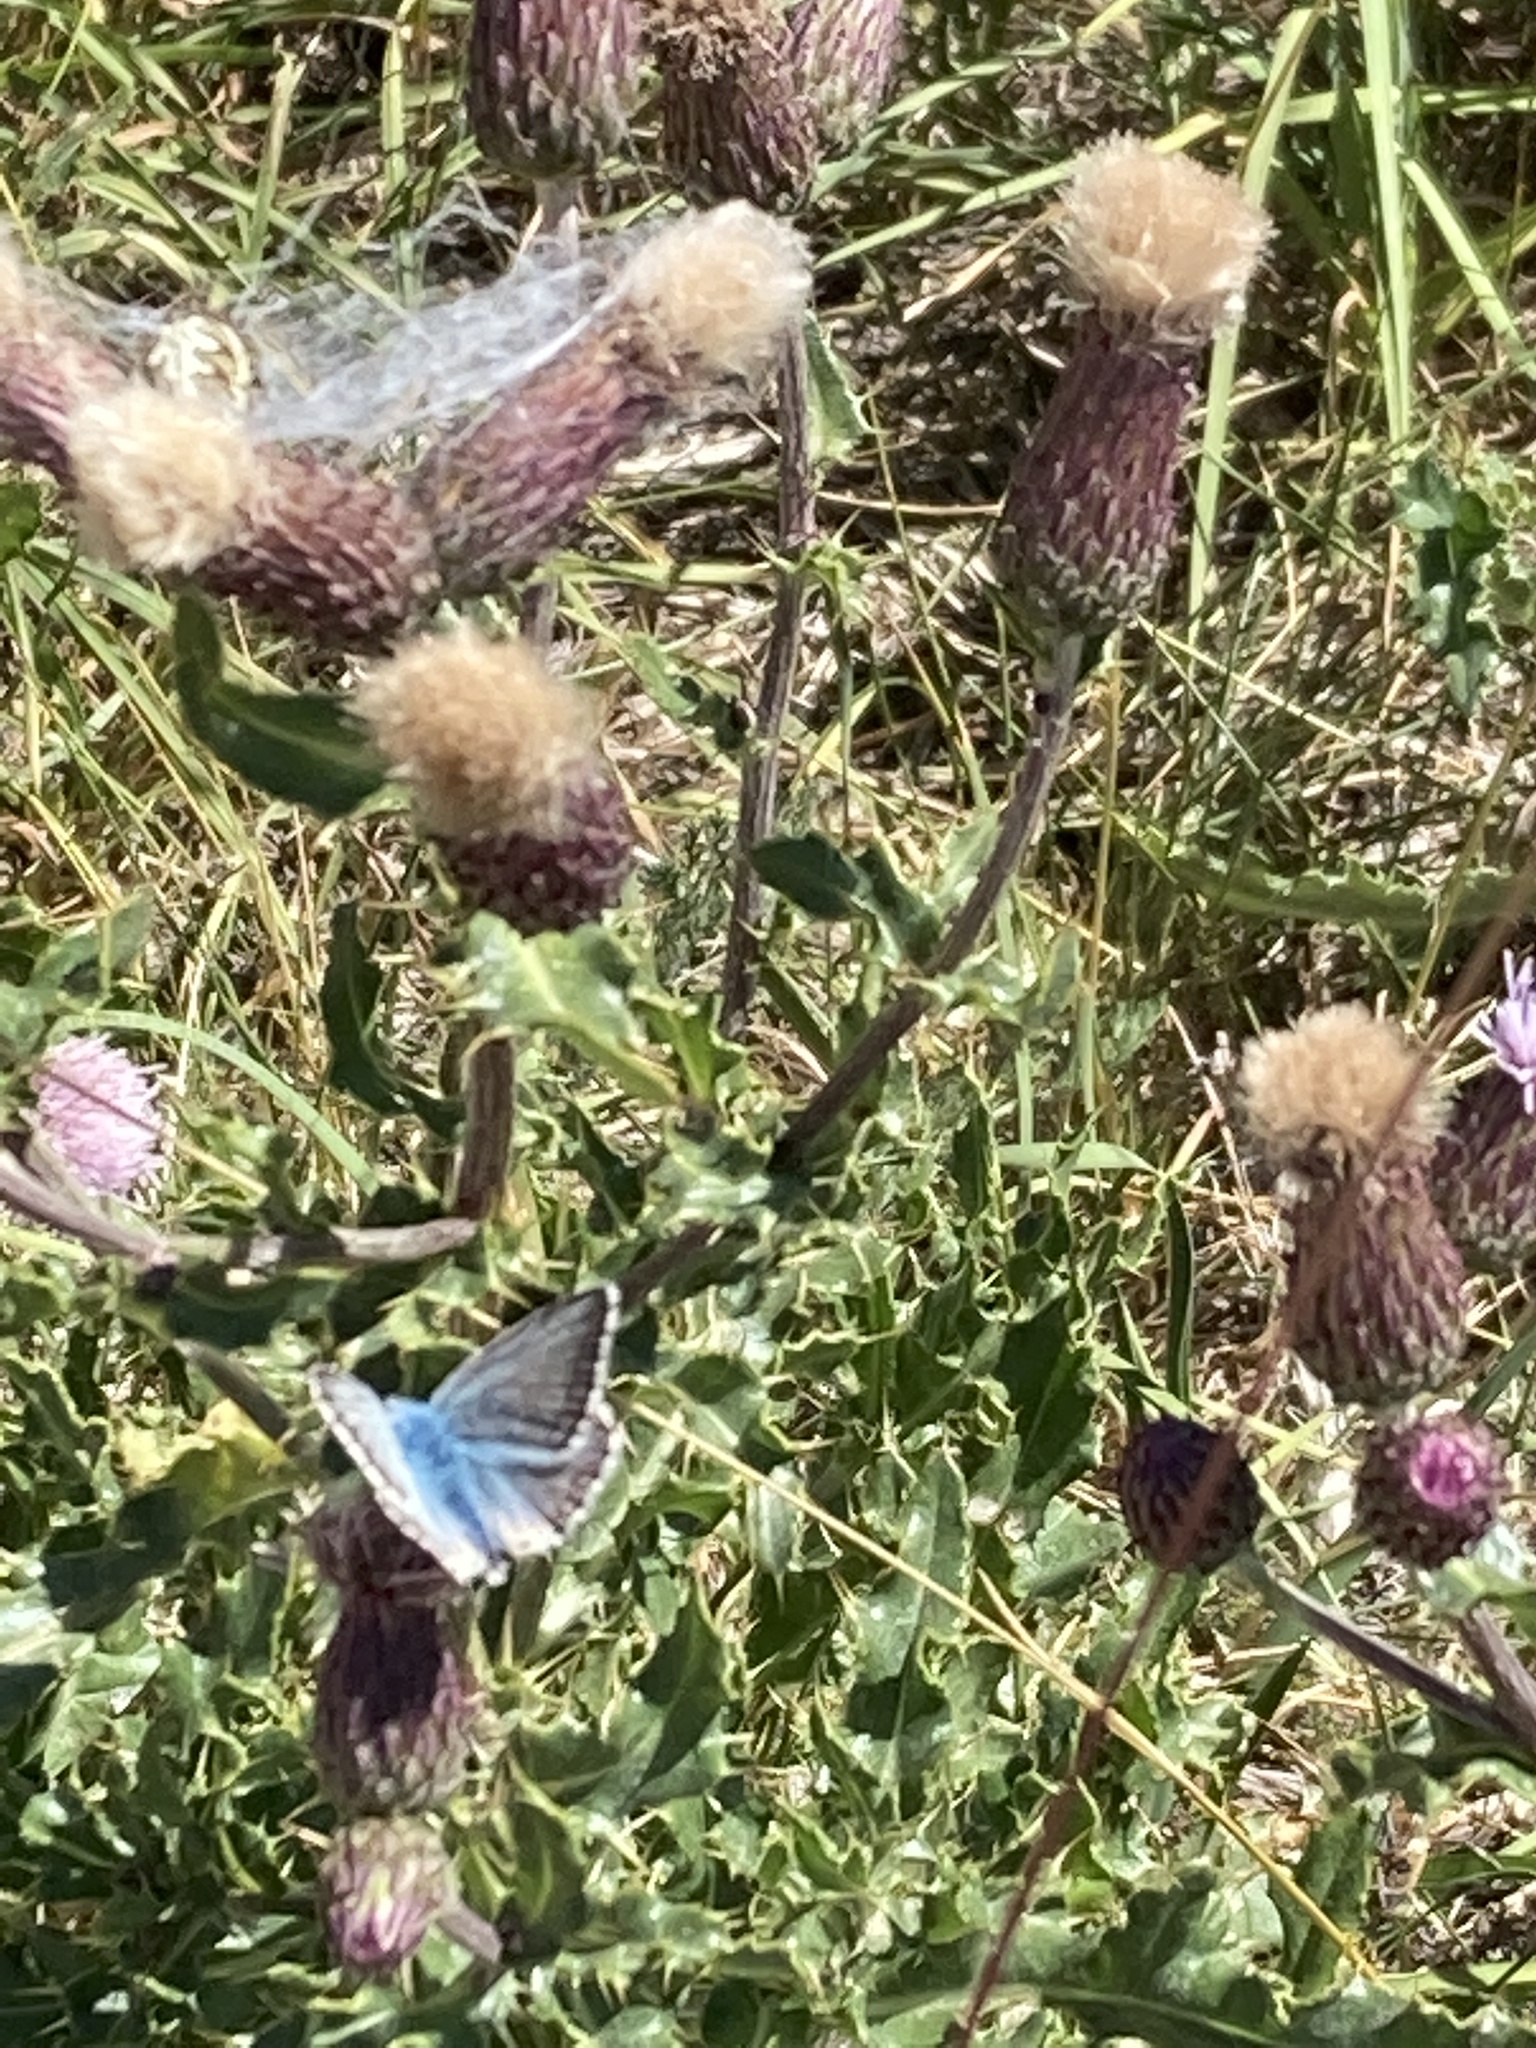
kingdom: Animalia
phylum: Arthropoda
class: Insecta
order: Lepidoptera
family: Lycaenidae
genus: Lysandra
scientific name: Lysandra coridon
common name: Chalkhill blue
